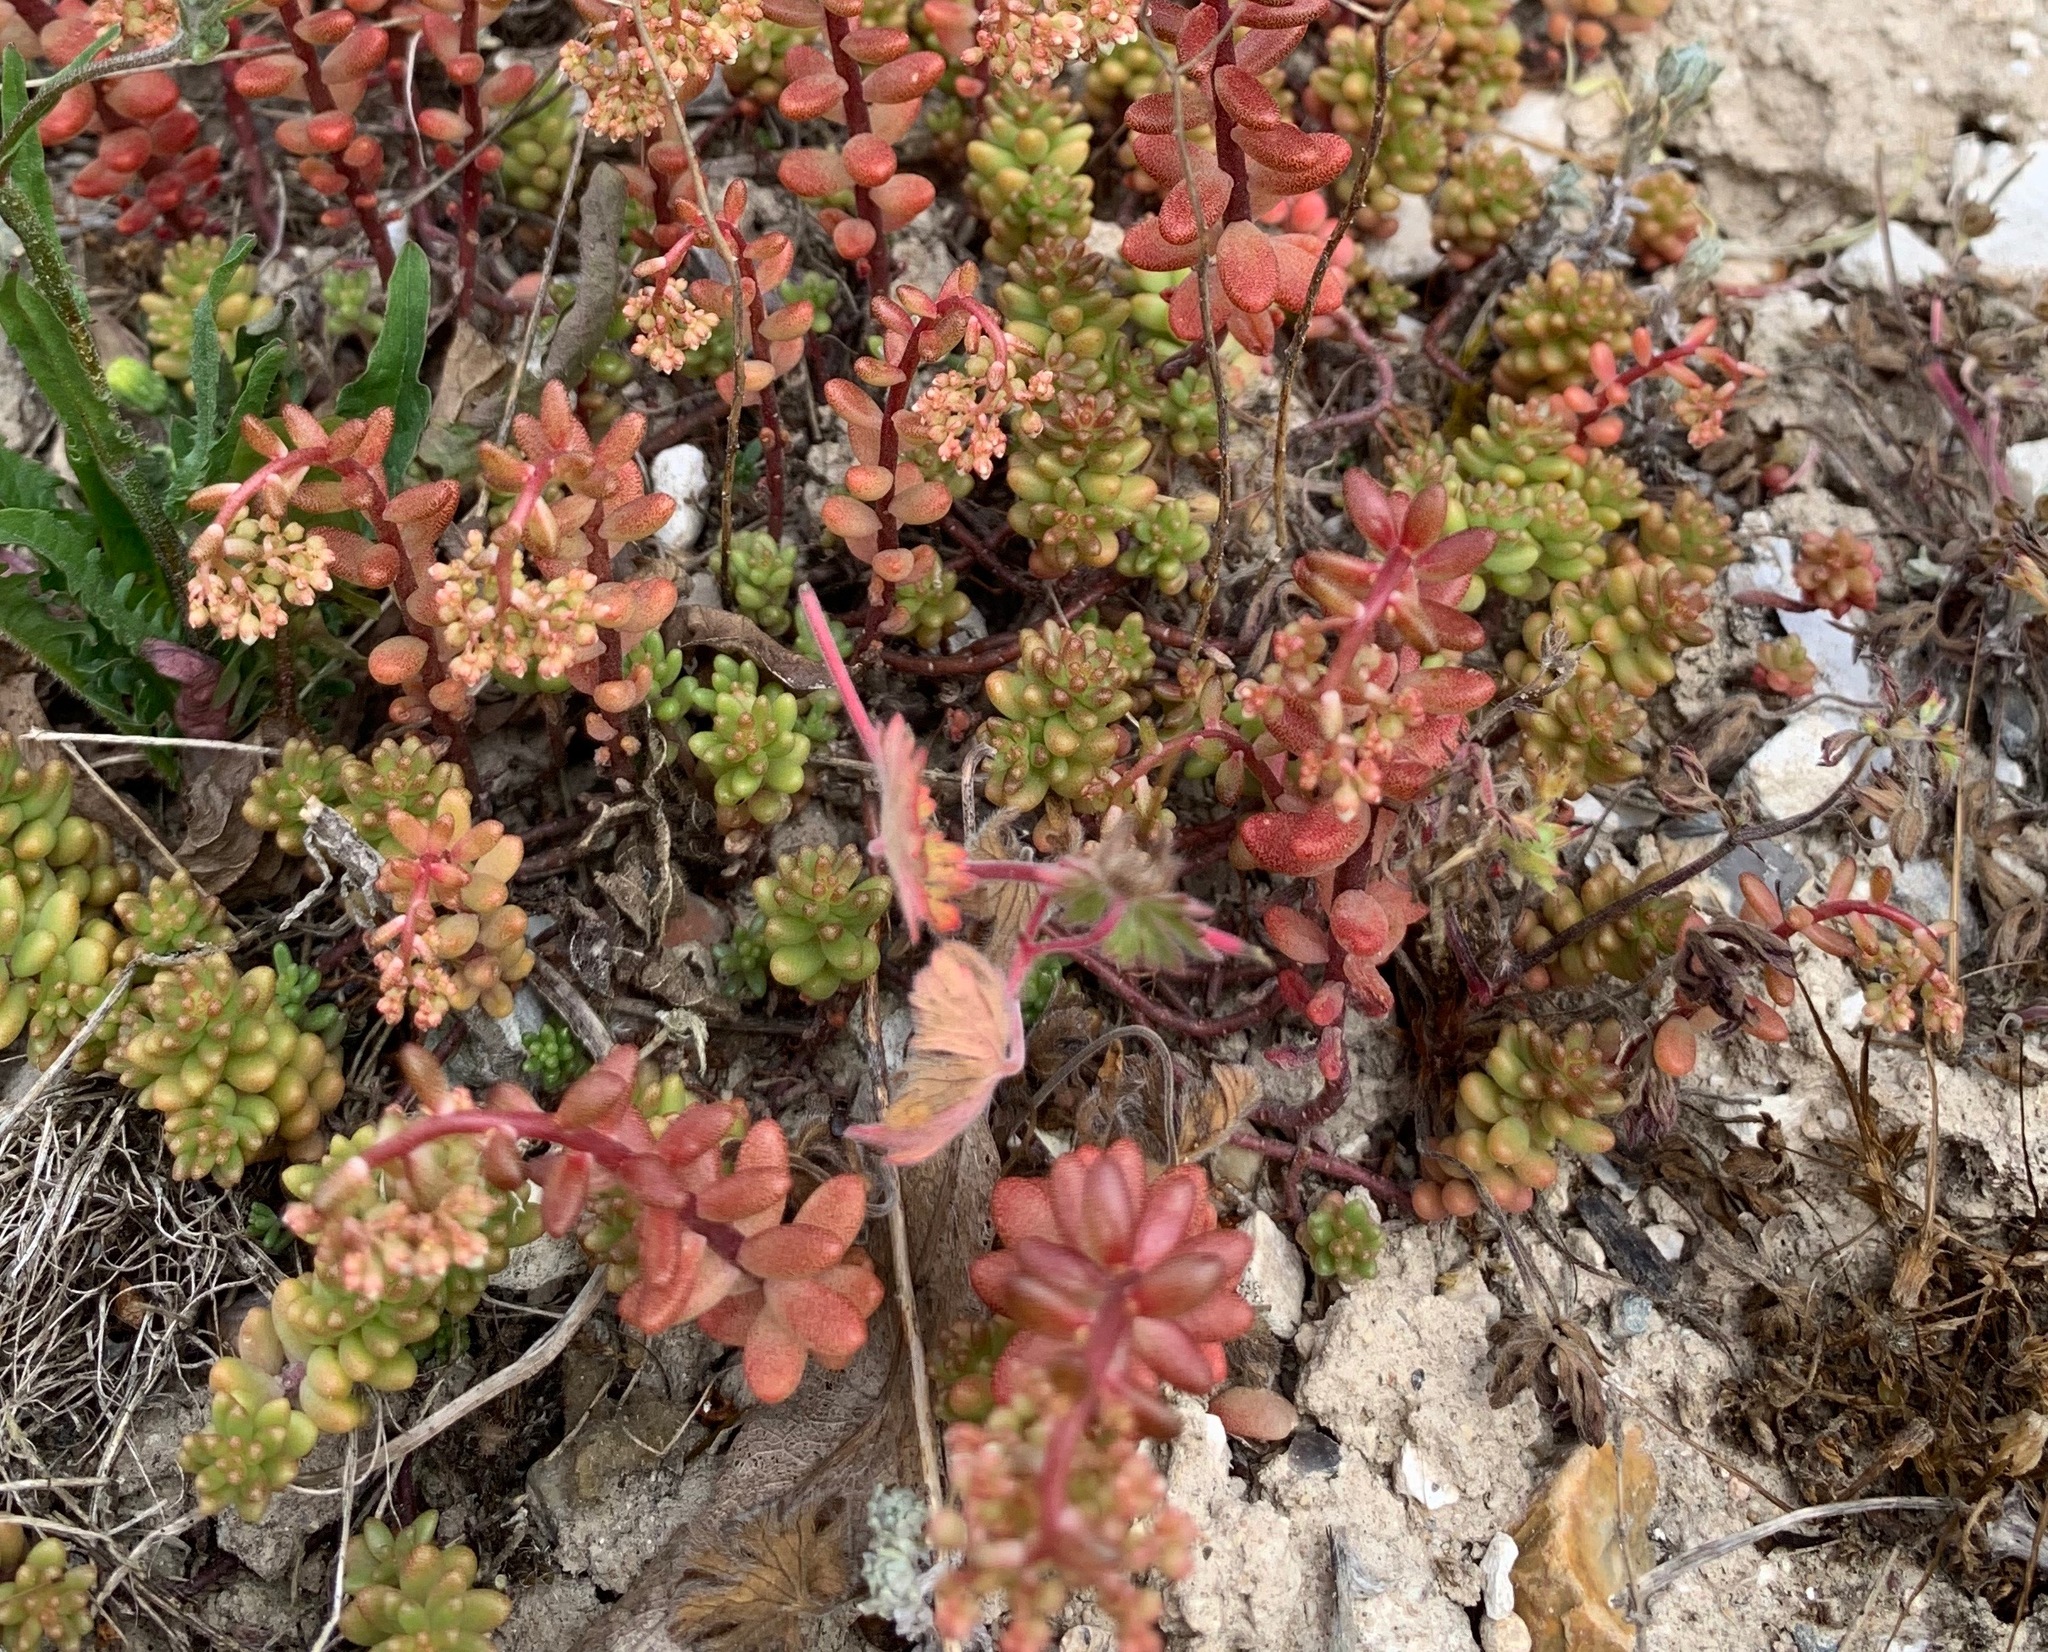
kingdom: Plantae
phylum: Tracheophyta
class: Magnoliopsida
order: Saxifragales
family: Crassulaceae
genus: Sedum
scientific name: Sedum album
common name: White stonecrop
